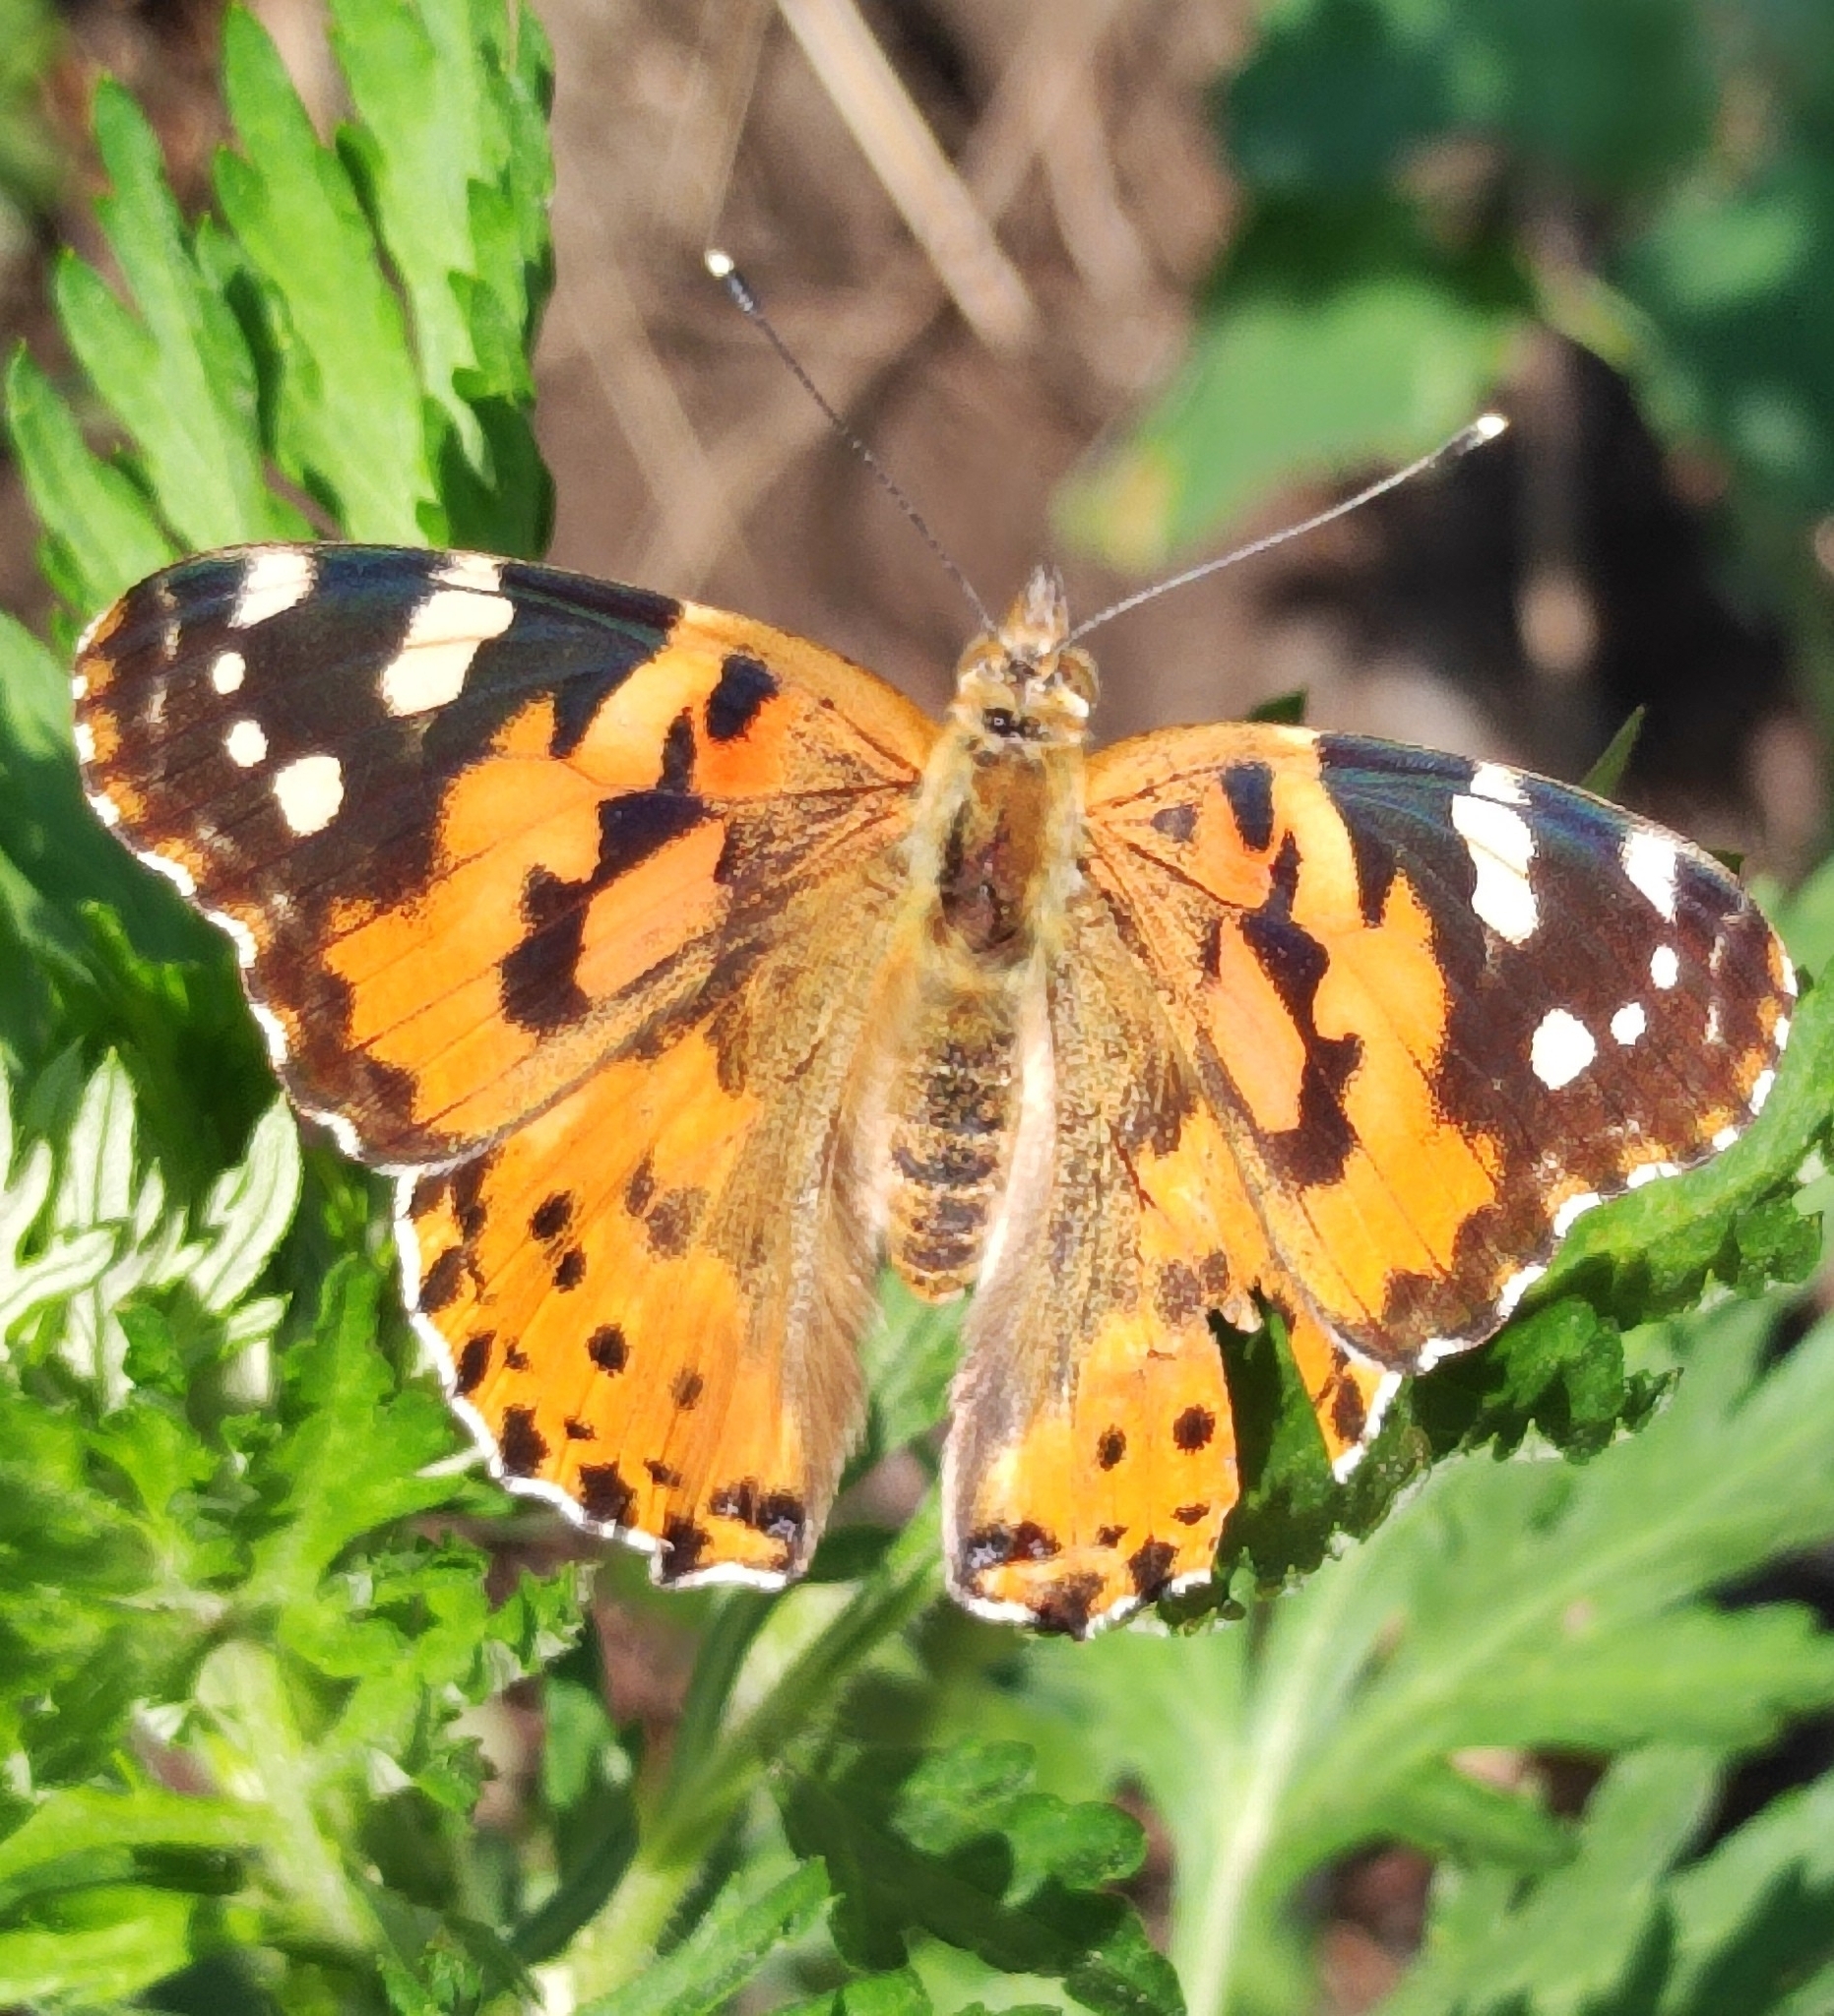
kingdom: Animalia
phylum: Arthropoda
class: Insecta
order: Lepidoptera
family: Nymphalidae
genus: Vanessa
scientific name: Vanessa cardui
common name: Painted lady
